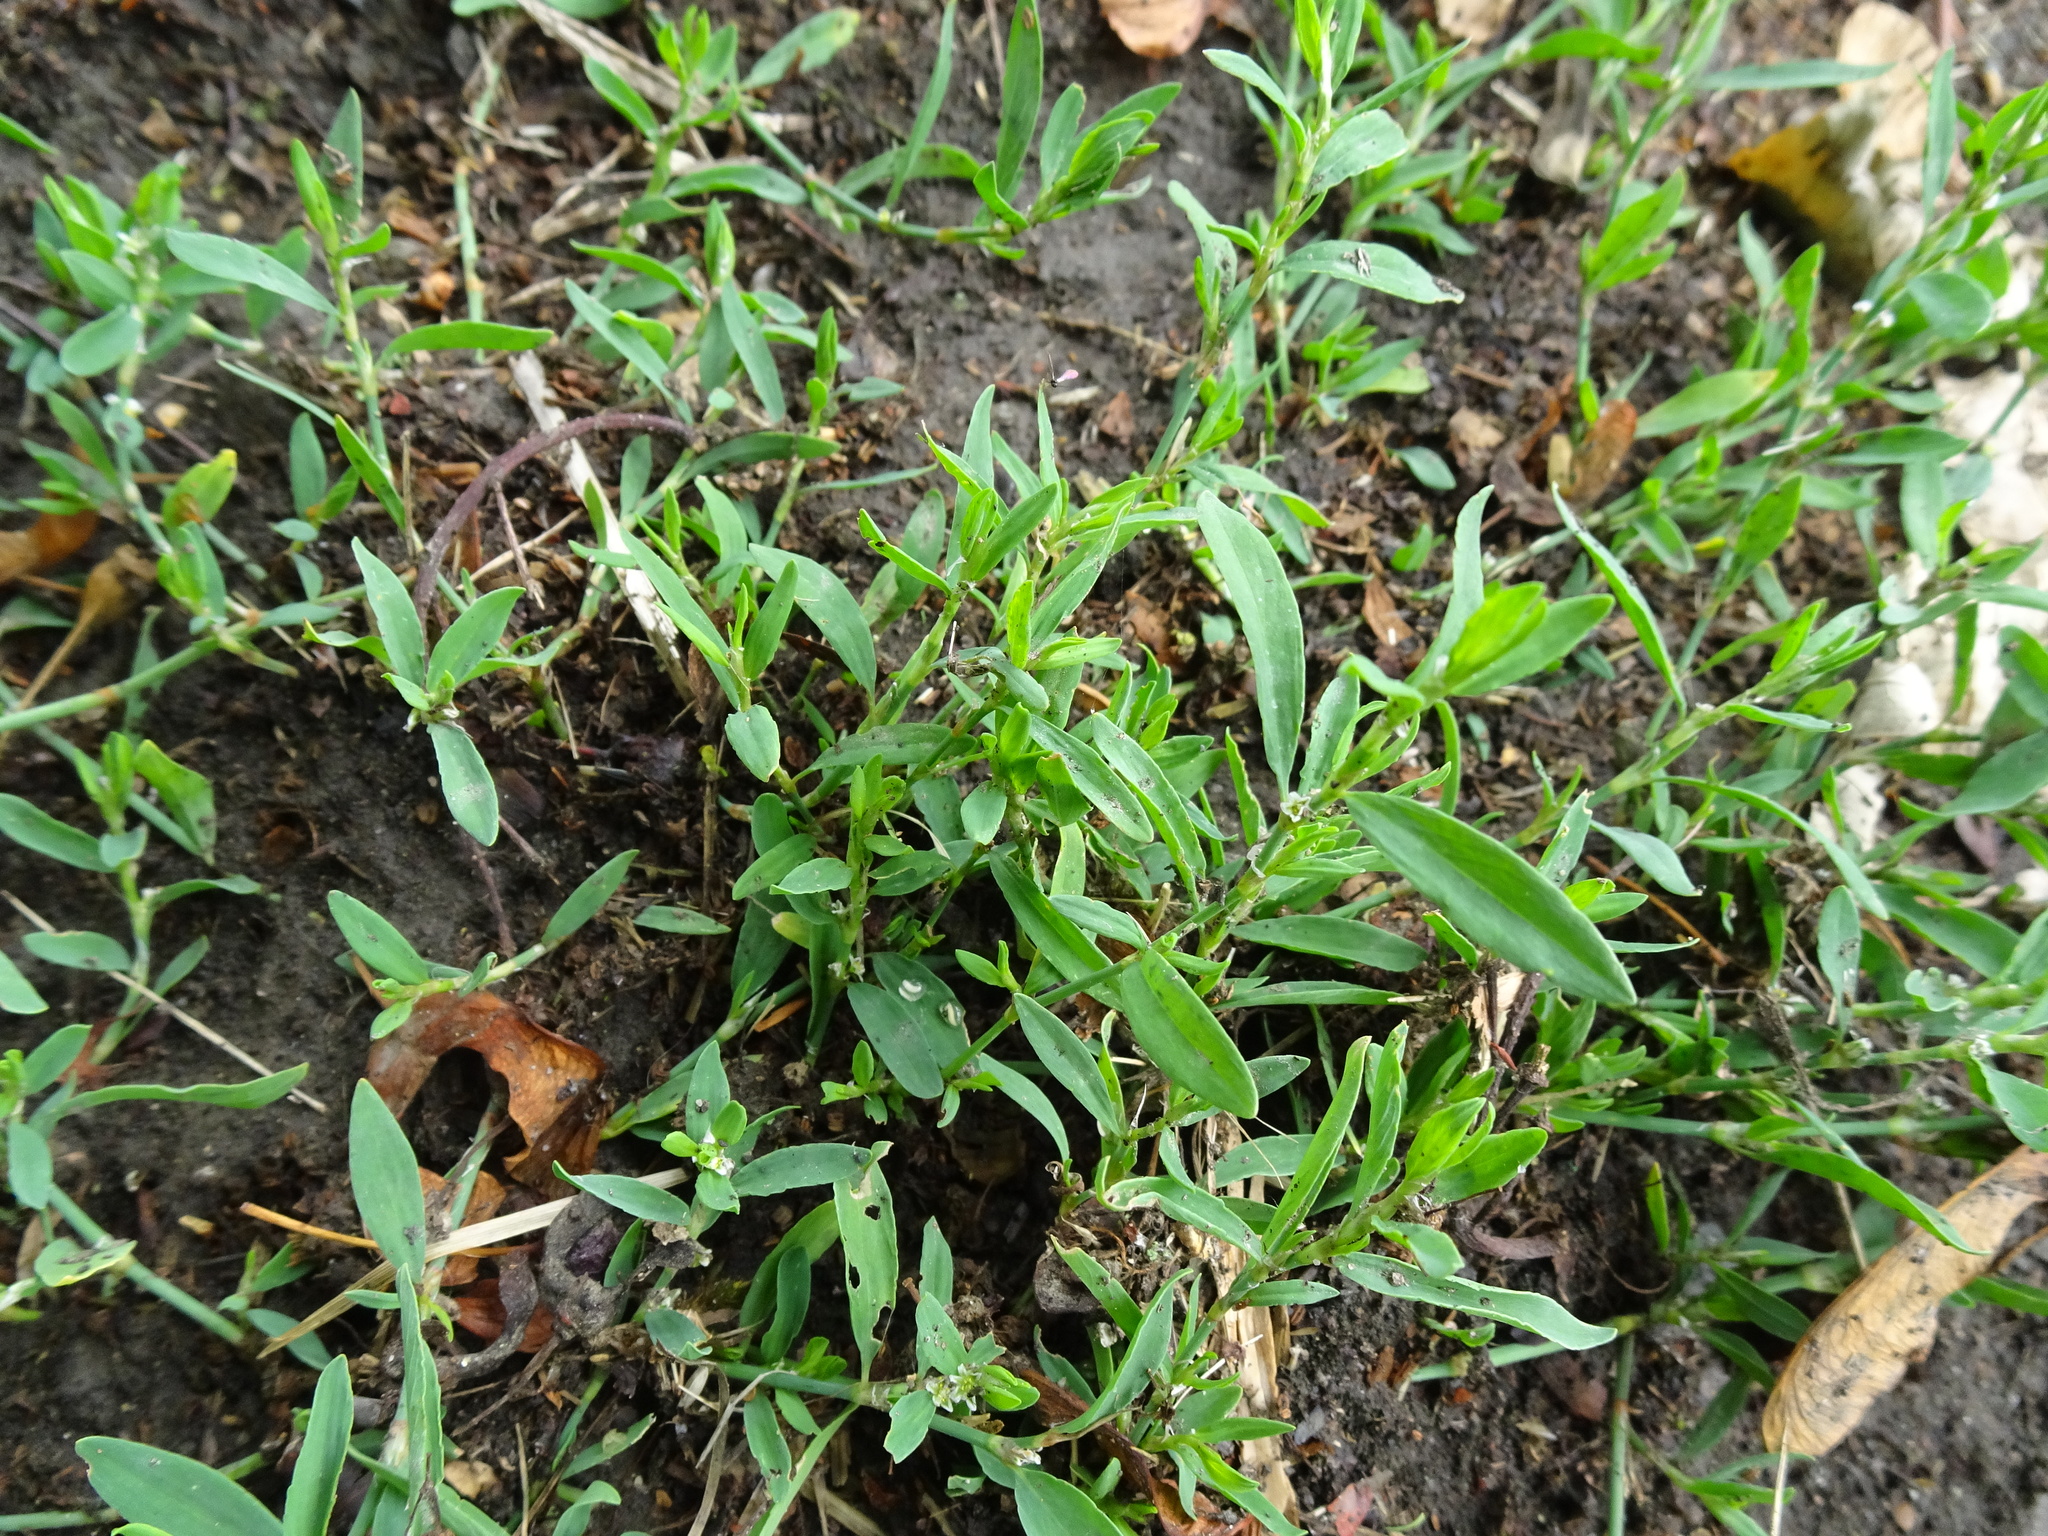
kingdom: Plantae
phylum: Tracheophyta
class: Magnoliopsida
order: Caryophyllales
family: Polygonaceae
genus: Polygonum
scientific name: Polygonum aviculare
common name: Prostrate knotweed
